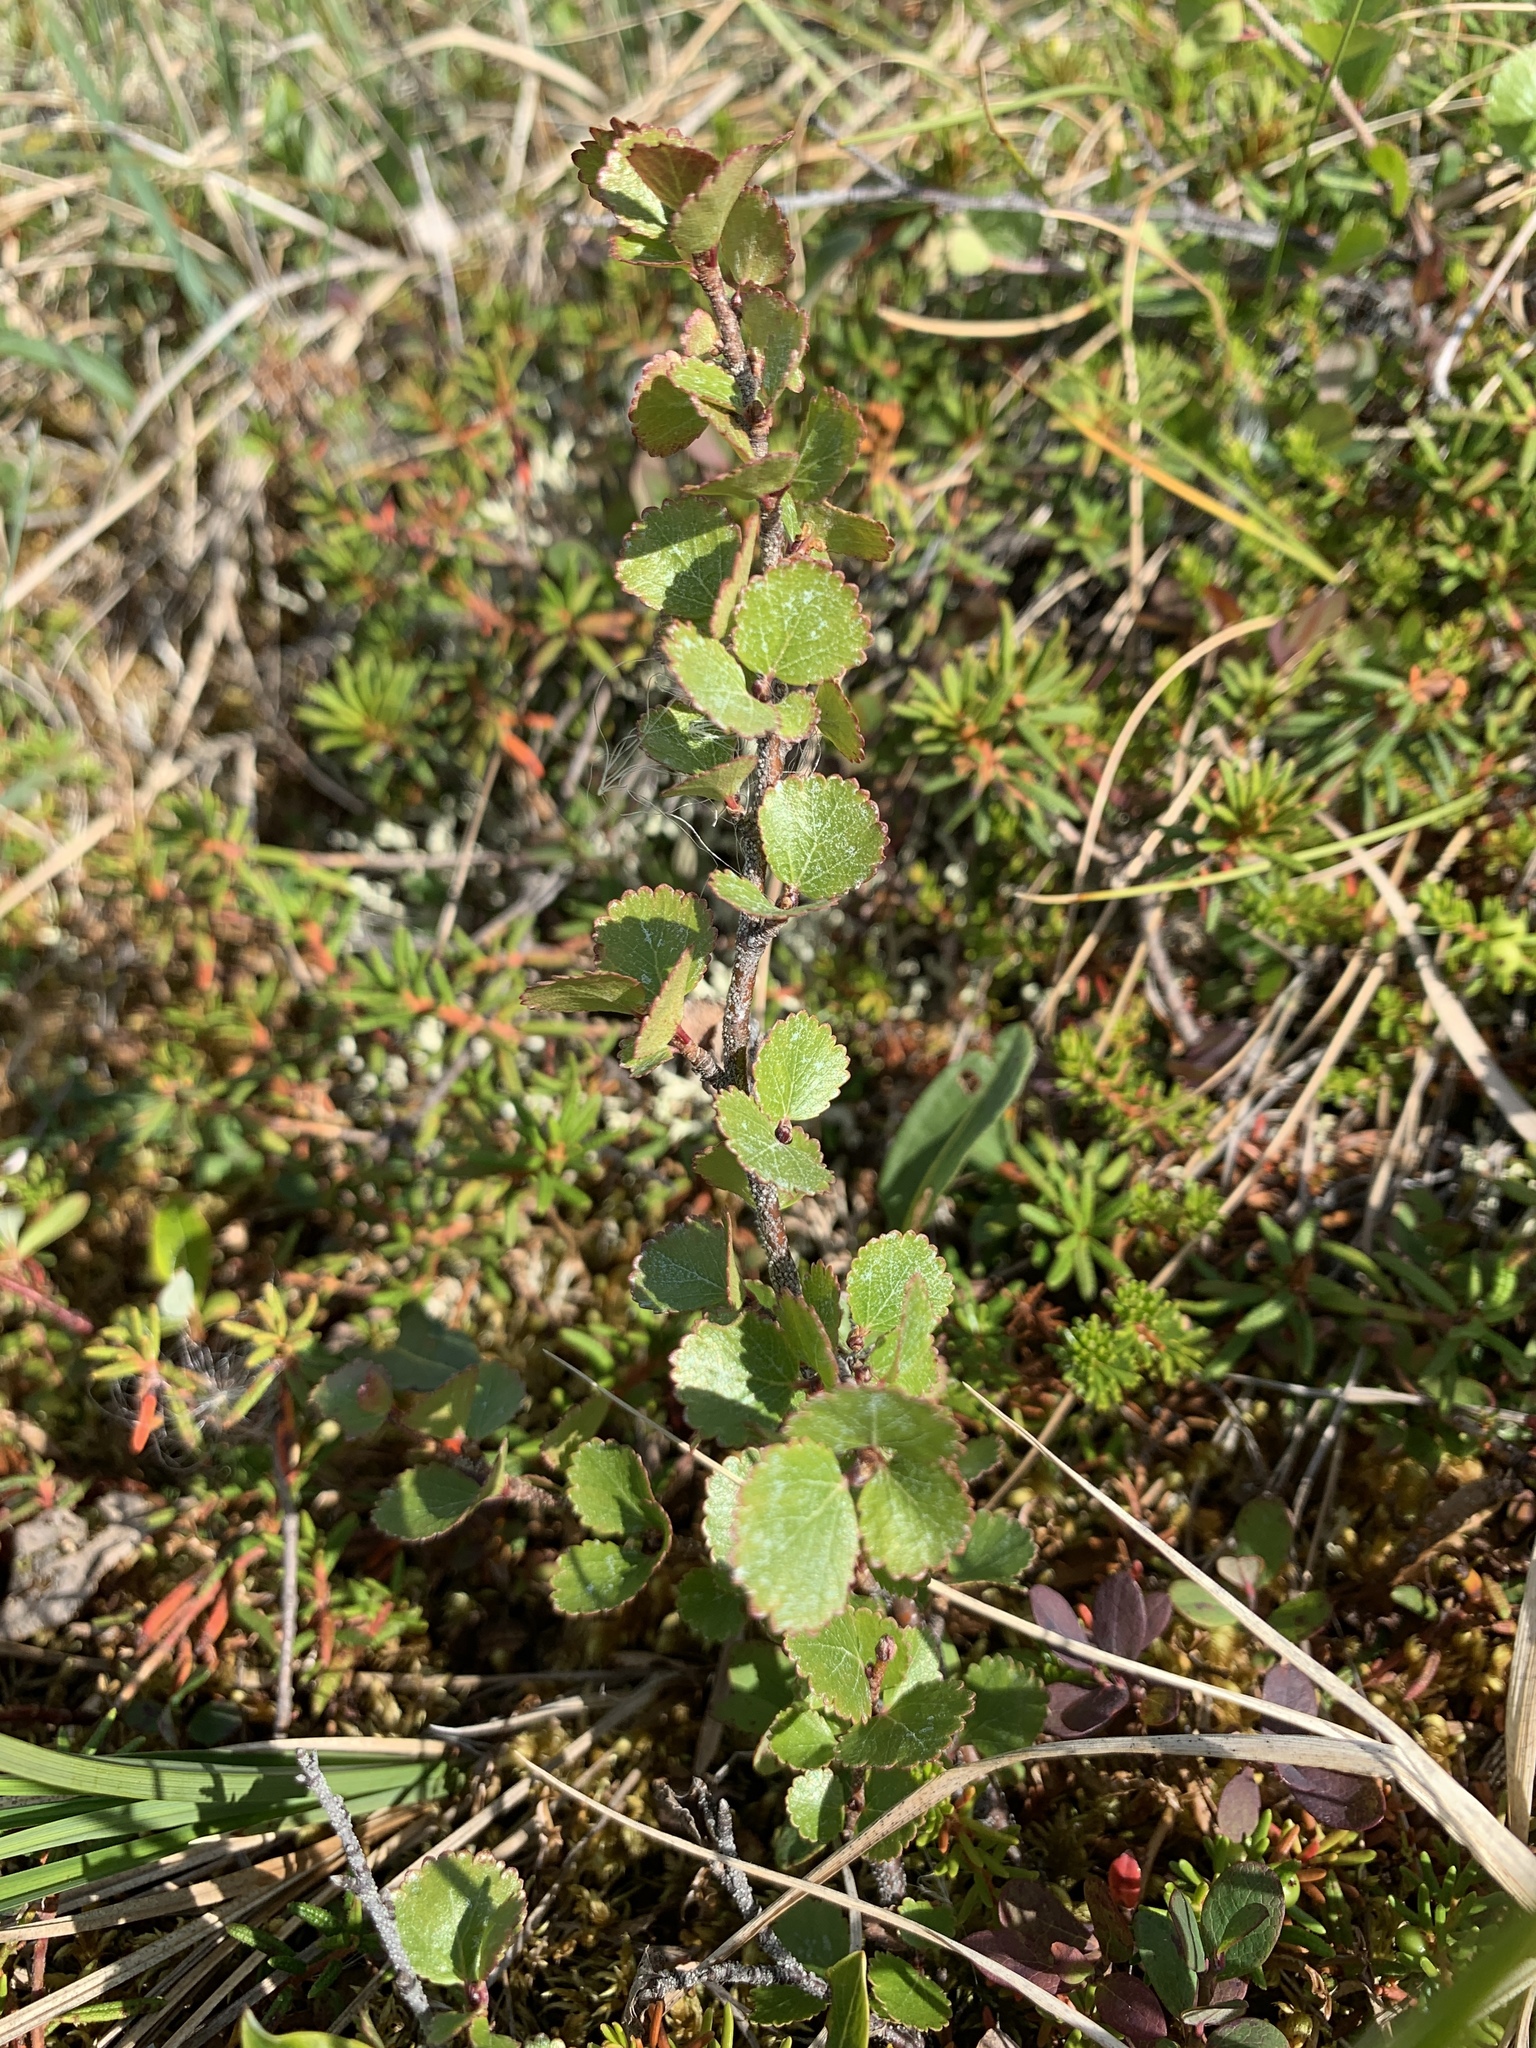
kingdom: Plantae
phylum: Tracheophyta
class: Magnoliopsida
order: Fagales
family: Betulaceae
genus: Betula
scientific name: Betula nana
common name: Arctic dwarf birch
